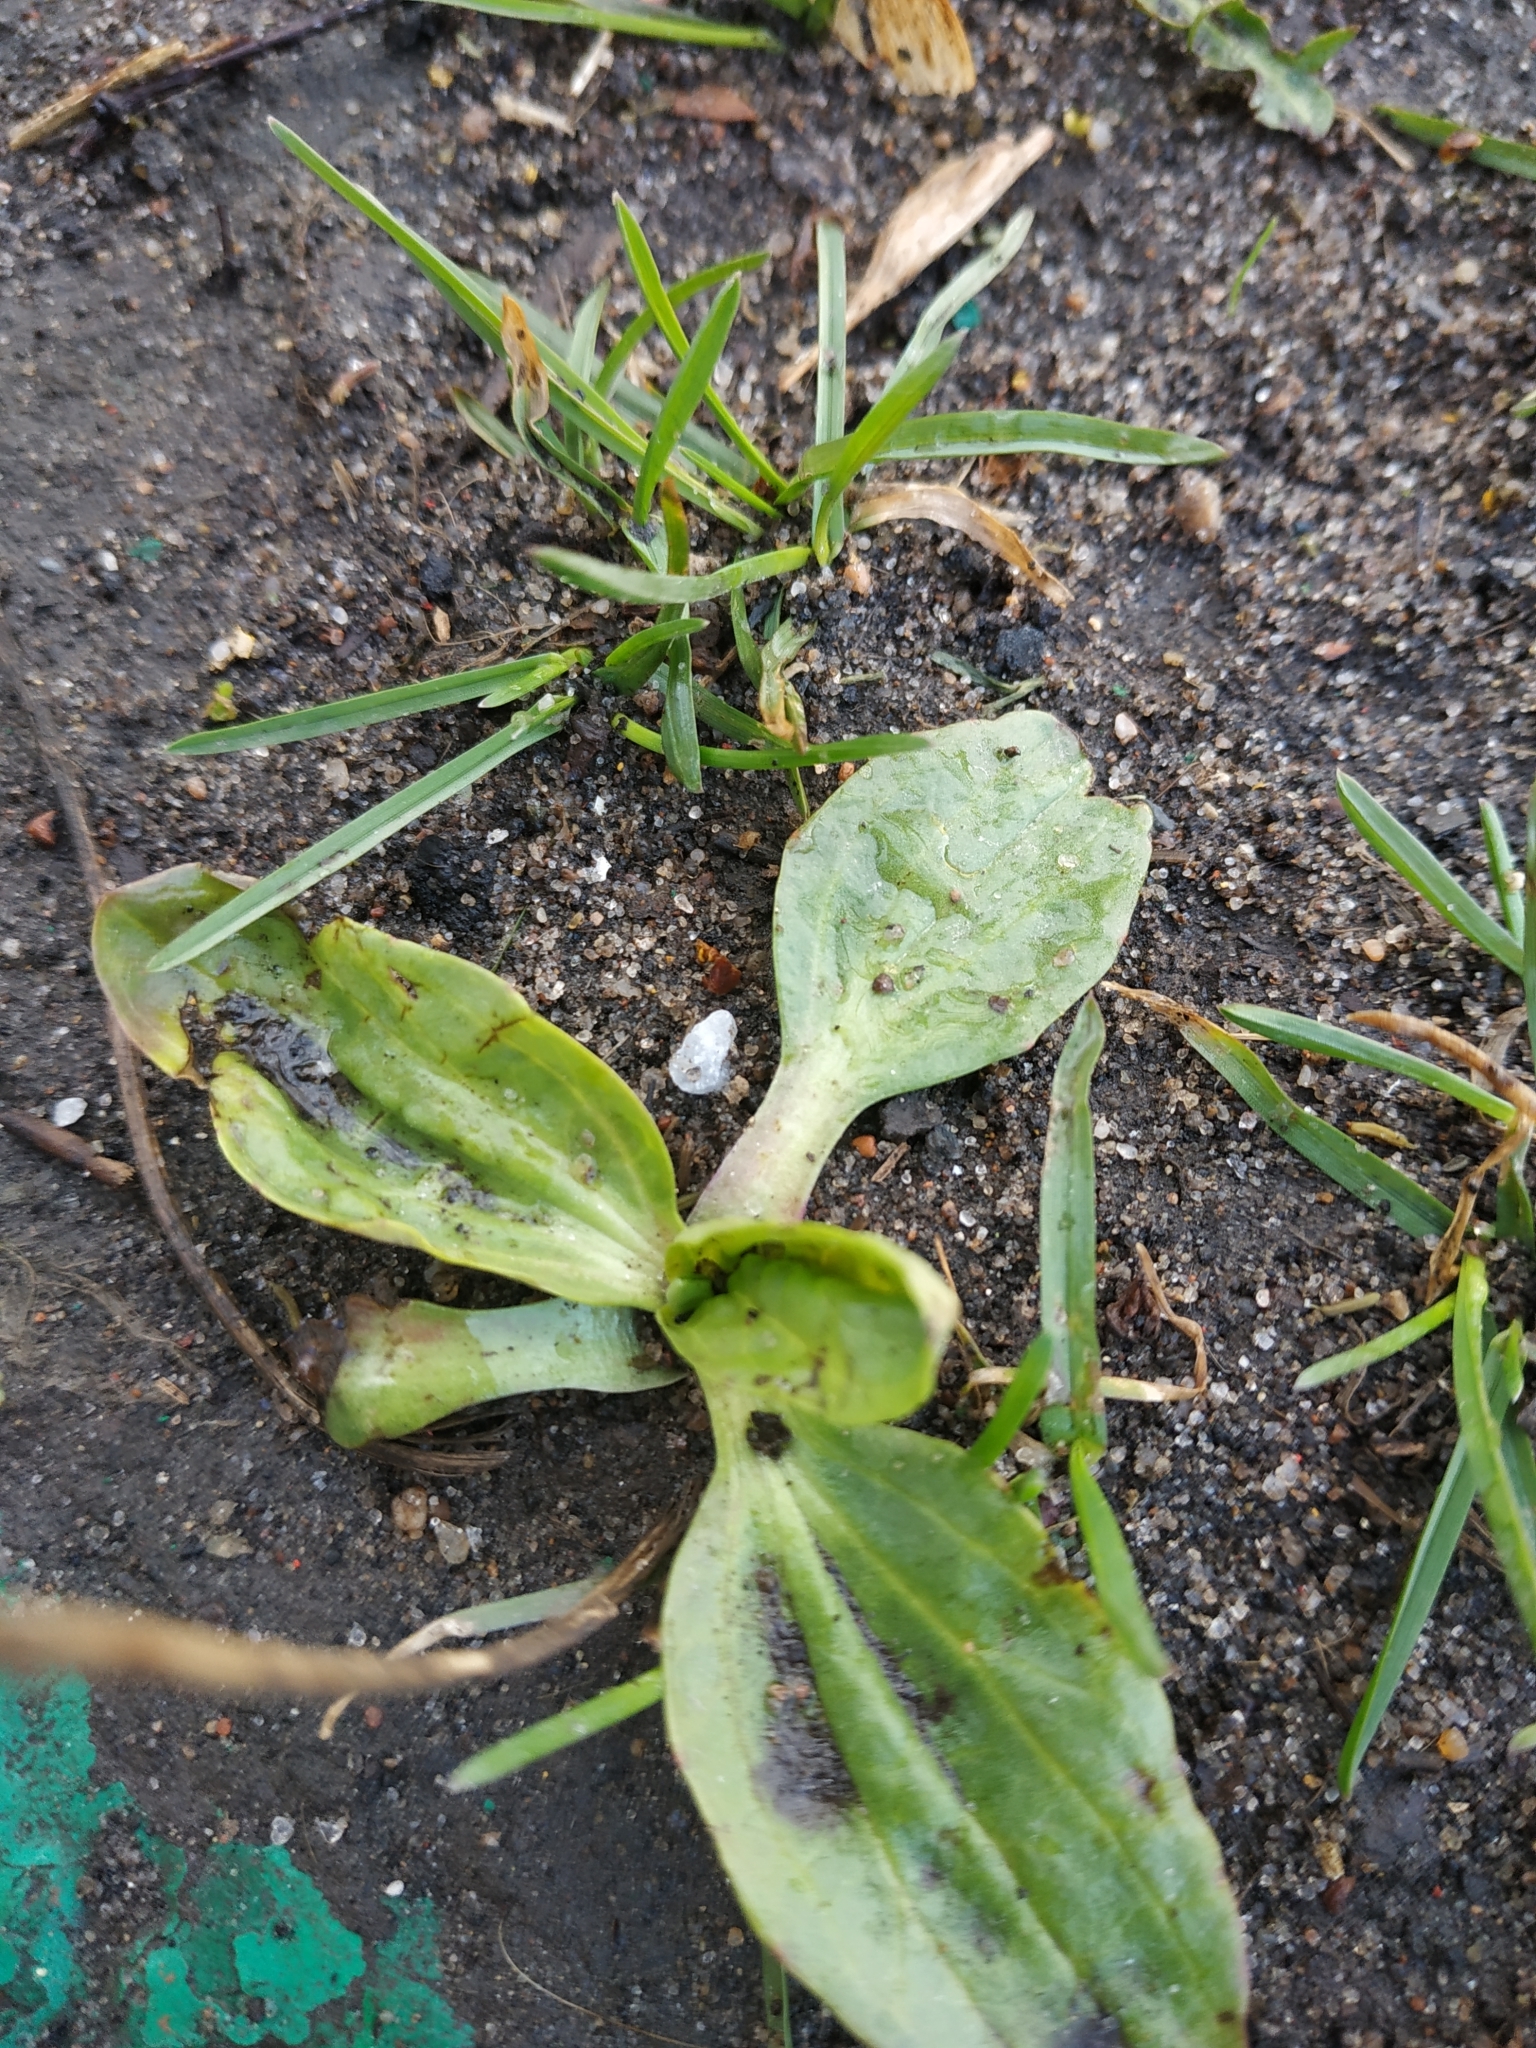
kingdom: Plantae
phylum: Tracheophyta
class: Magnoliopsida
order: Lamiales
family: Plantaginaceae
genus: Plantago
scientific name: Plantago major
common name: Common plantain
